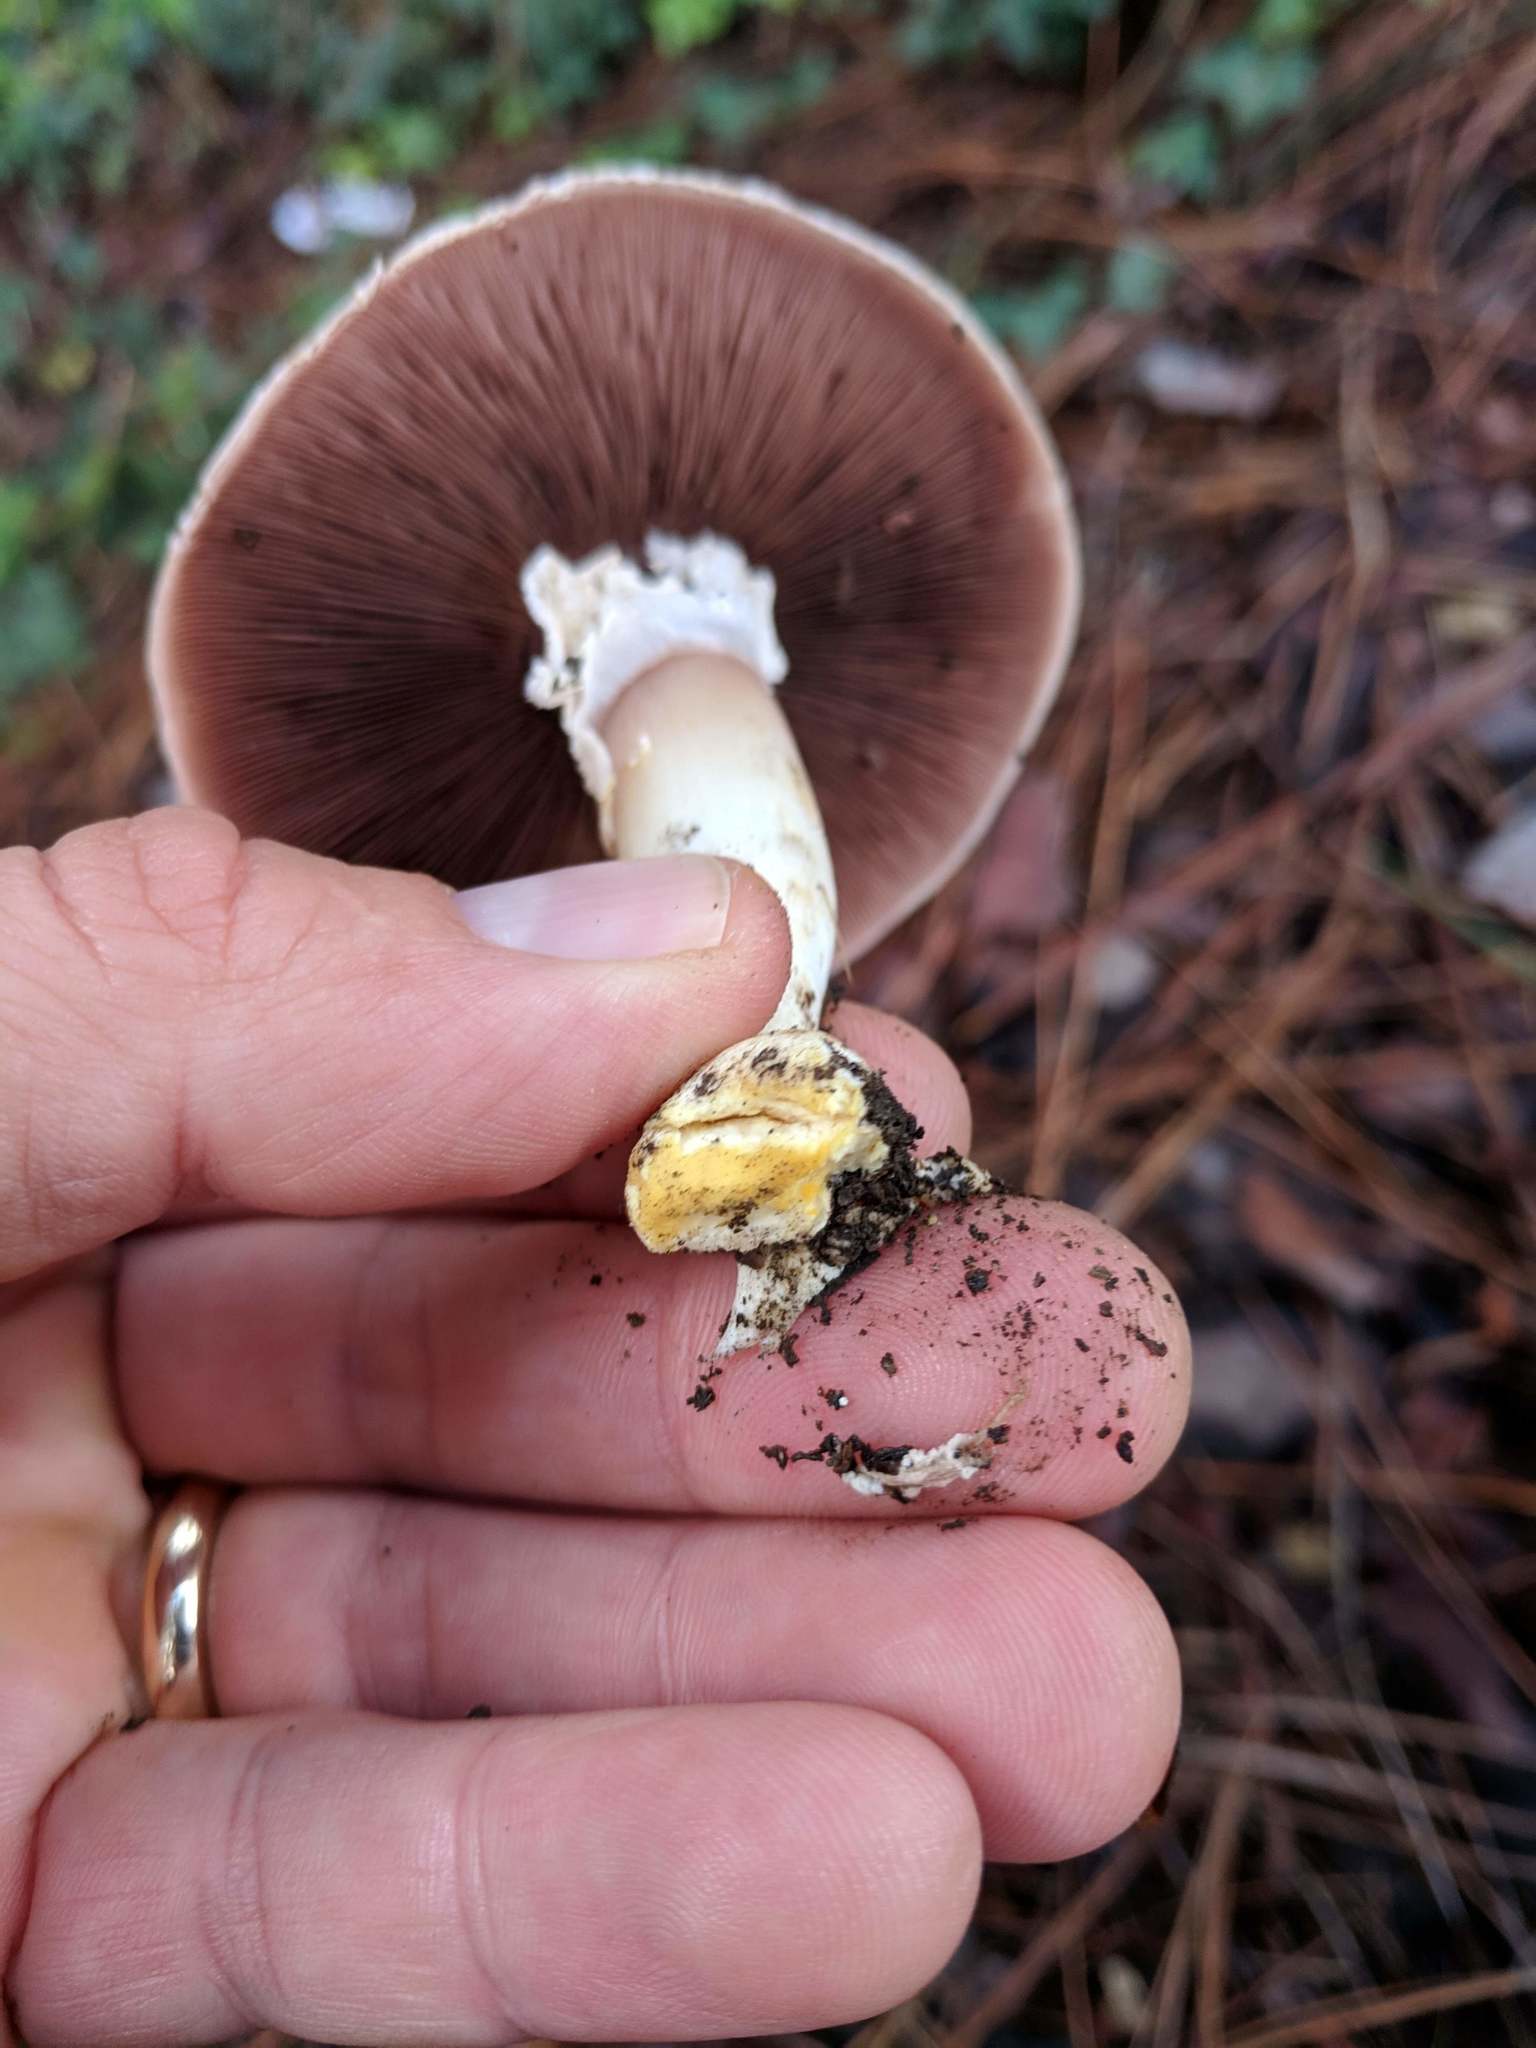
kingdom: Fungi
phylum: Basidiomycota
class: Agaricomycetes
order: Agaricales
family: Agaricaceae
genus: Agaricus
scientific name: Agaricus xanthodermus
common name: Yellow stainer
